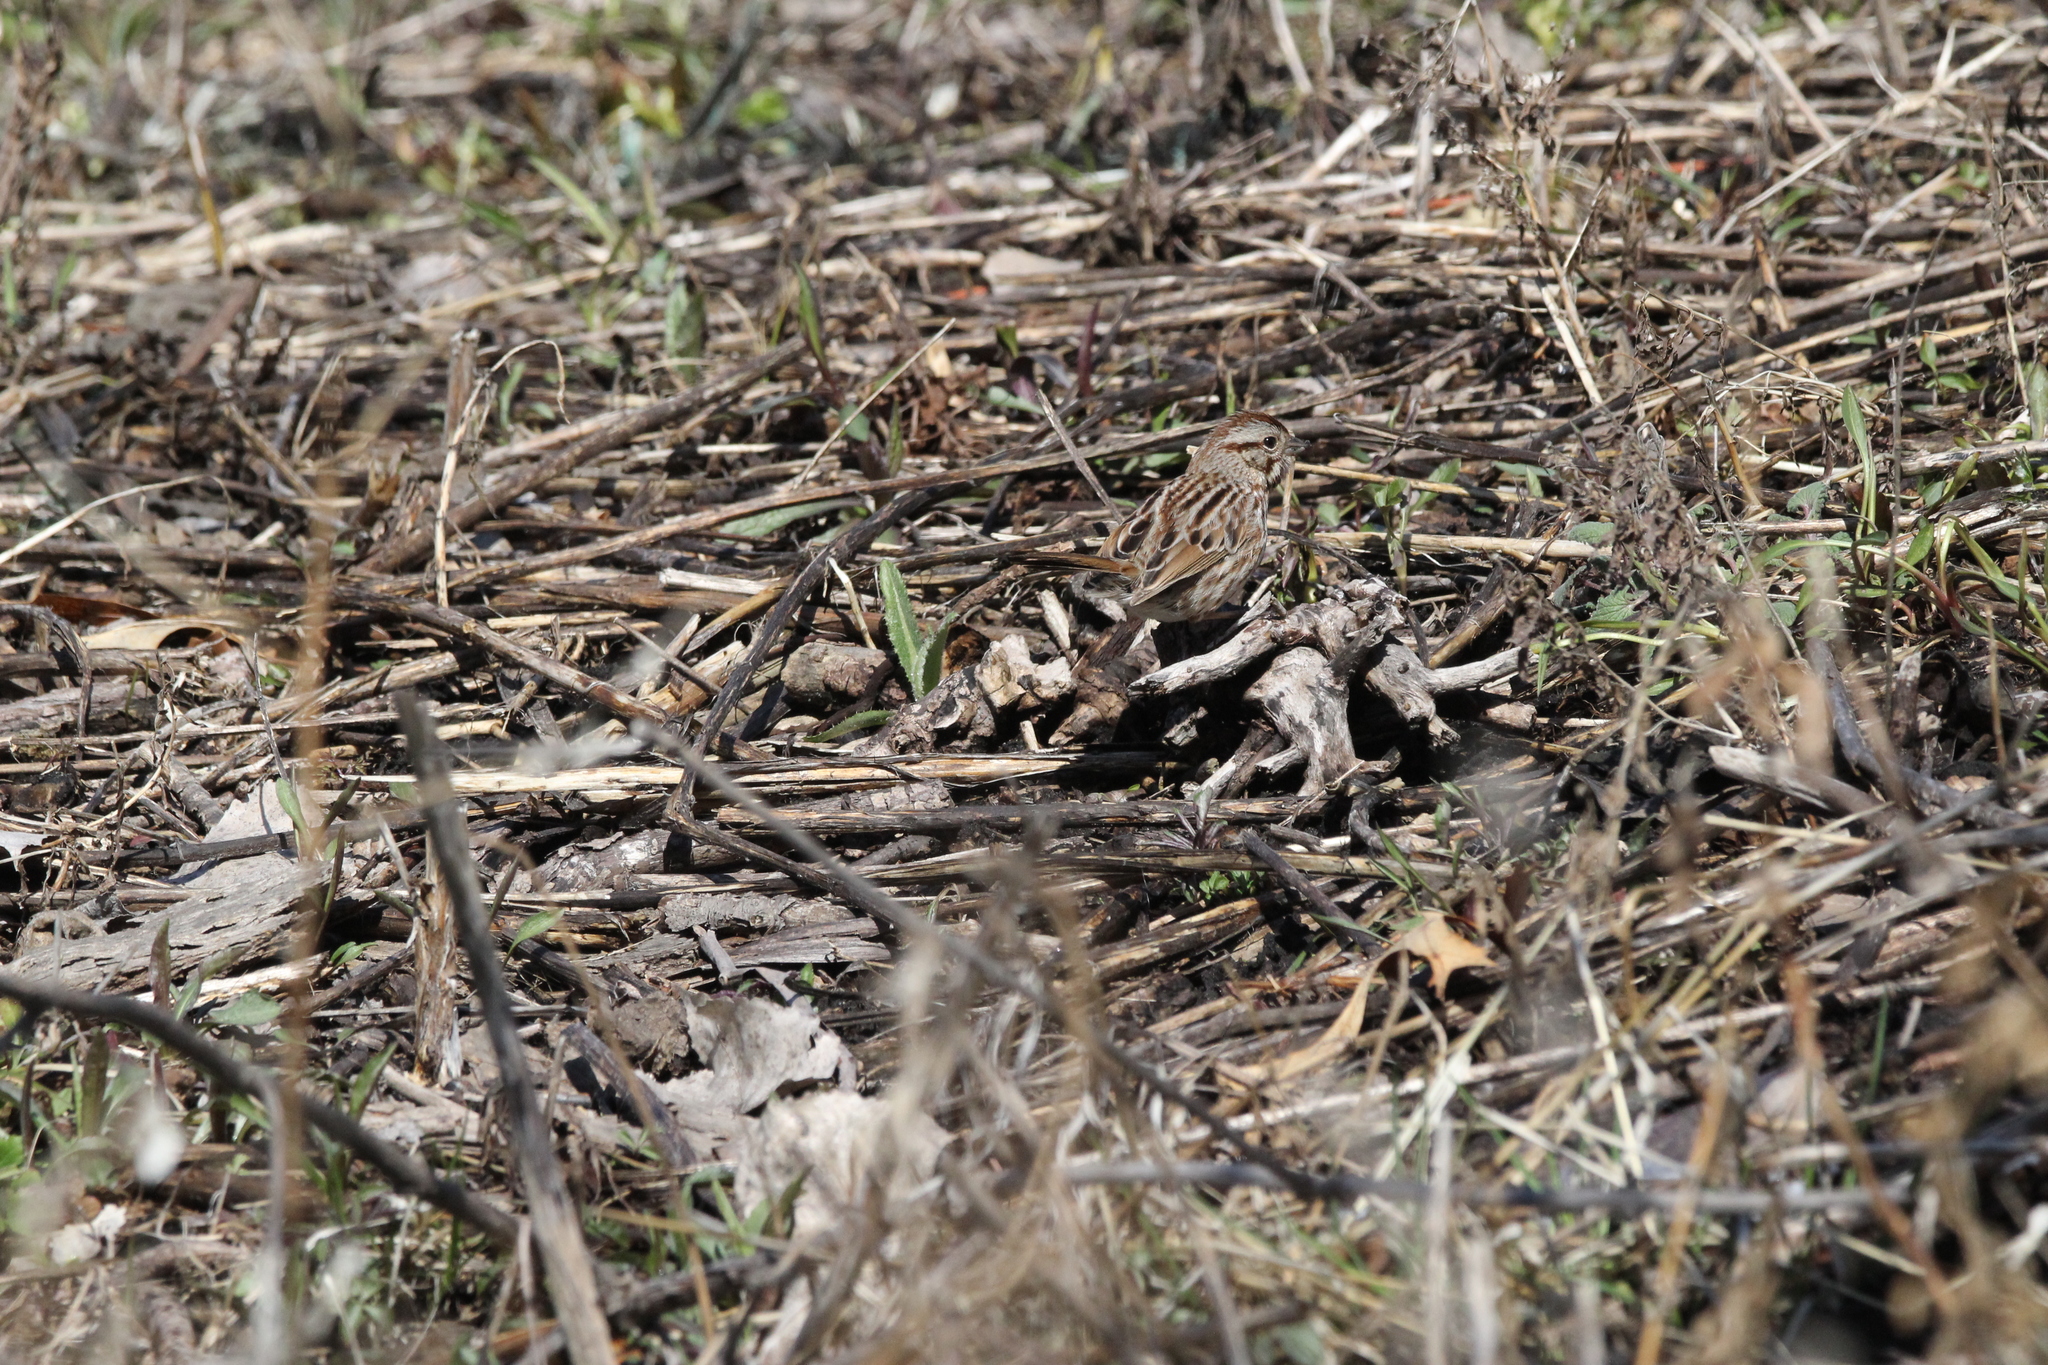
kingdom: Animalia
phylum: Chordata
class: Aves
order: Passeriformes
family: Passerellidae
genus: Melospiza
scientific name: Melospiza melodia
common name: Song sparrow
